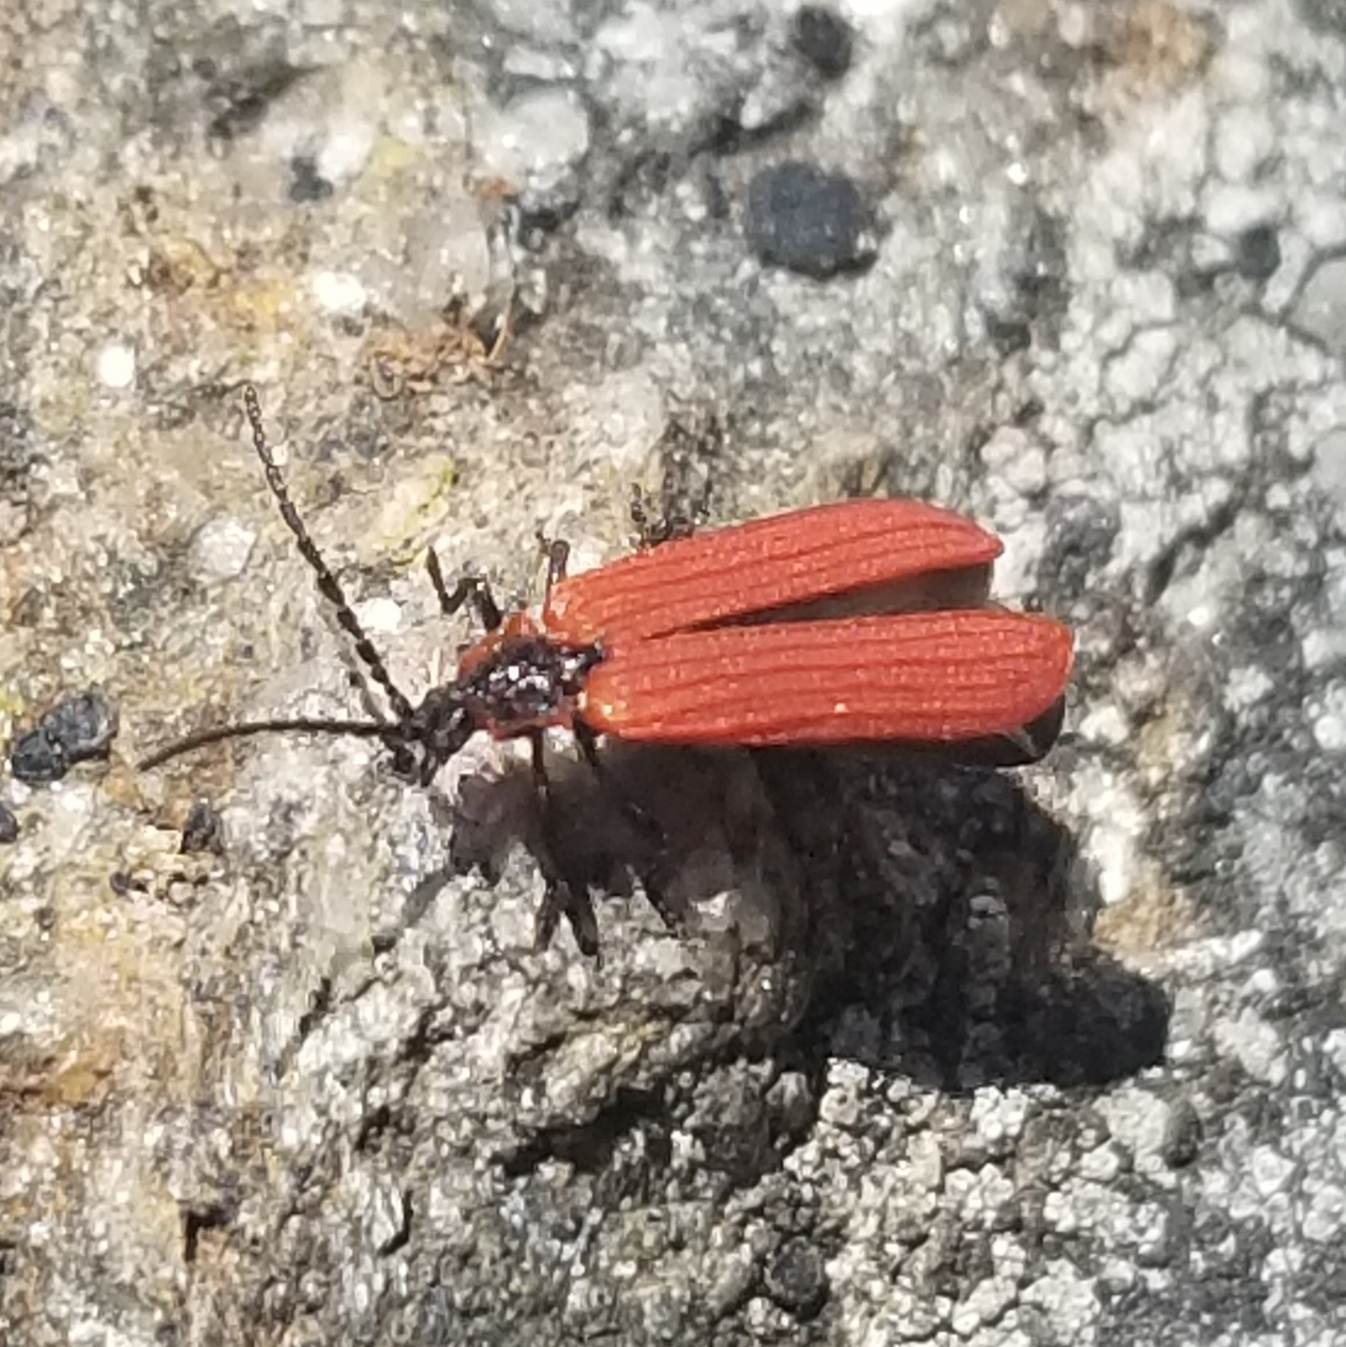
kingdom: Animalia
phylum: Arthropoda
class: Insecta
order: Coleoptera
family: Lycidae
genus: Dictyoptera
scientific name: Dictyoptera aurora
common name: Golden net-winged beetle
